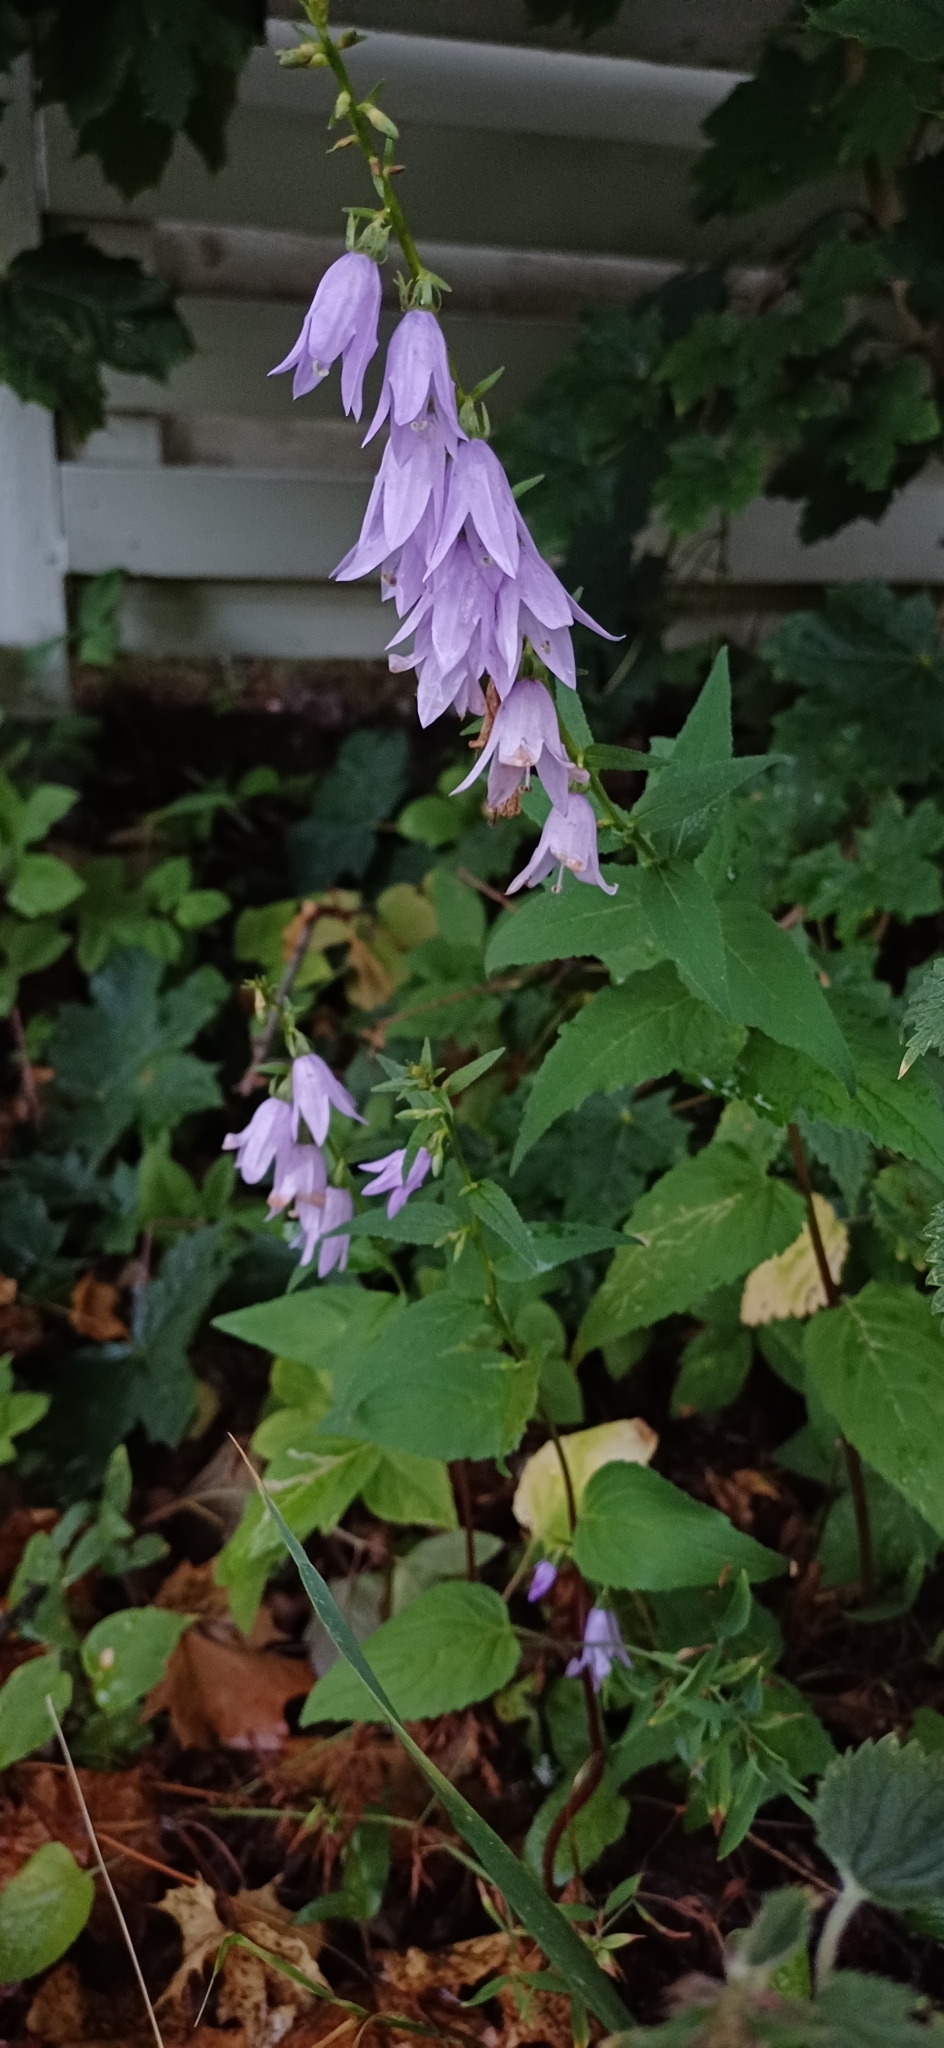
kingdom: Plantae
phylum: Tracheophyta
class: Magnoliopsida
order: Asterales
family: Campanulaceae
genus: Campanula
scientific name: Campanula rapunculoides
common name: Creeping bellflower
